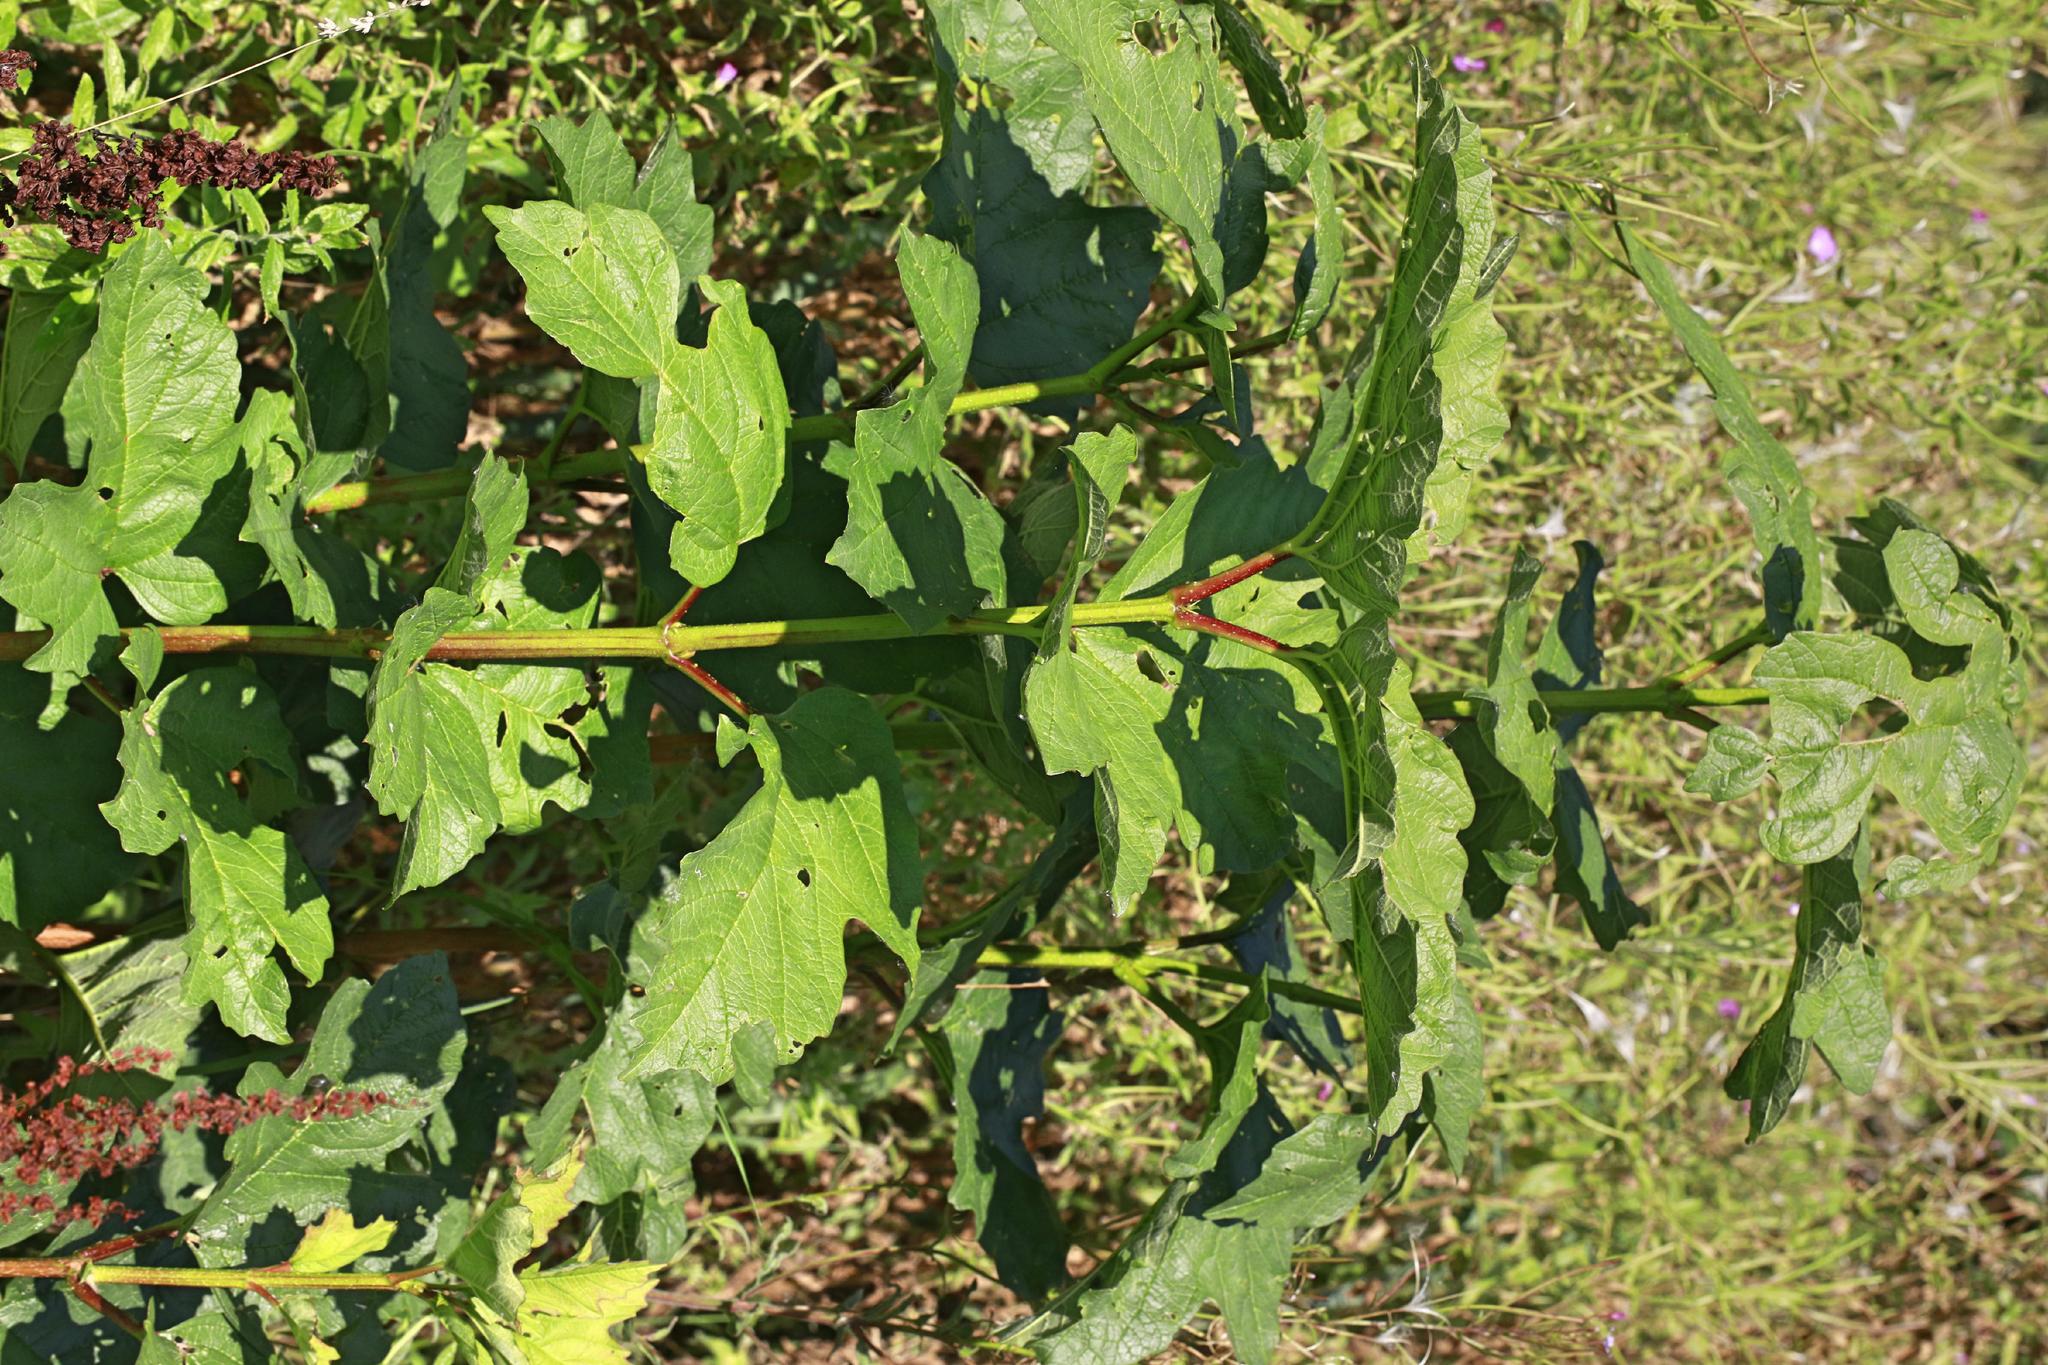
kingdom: Plantae
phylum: Tracheophyta
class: Magnoliopsida
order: Dipsacales
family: Viburnaceae
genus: Viburnum
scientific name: Viburnum opulus
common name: Guelder-rose
